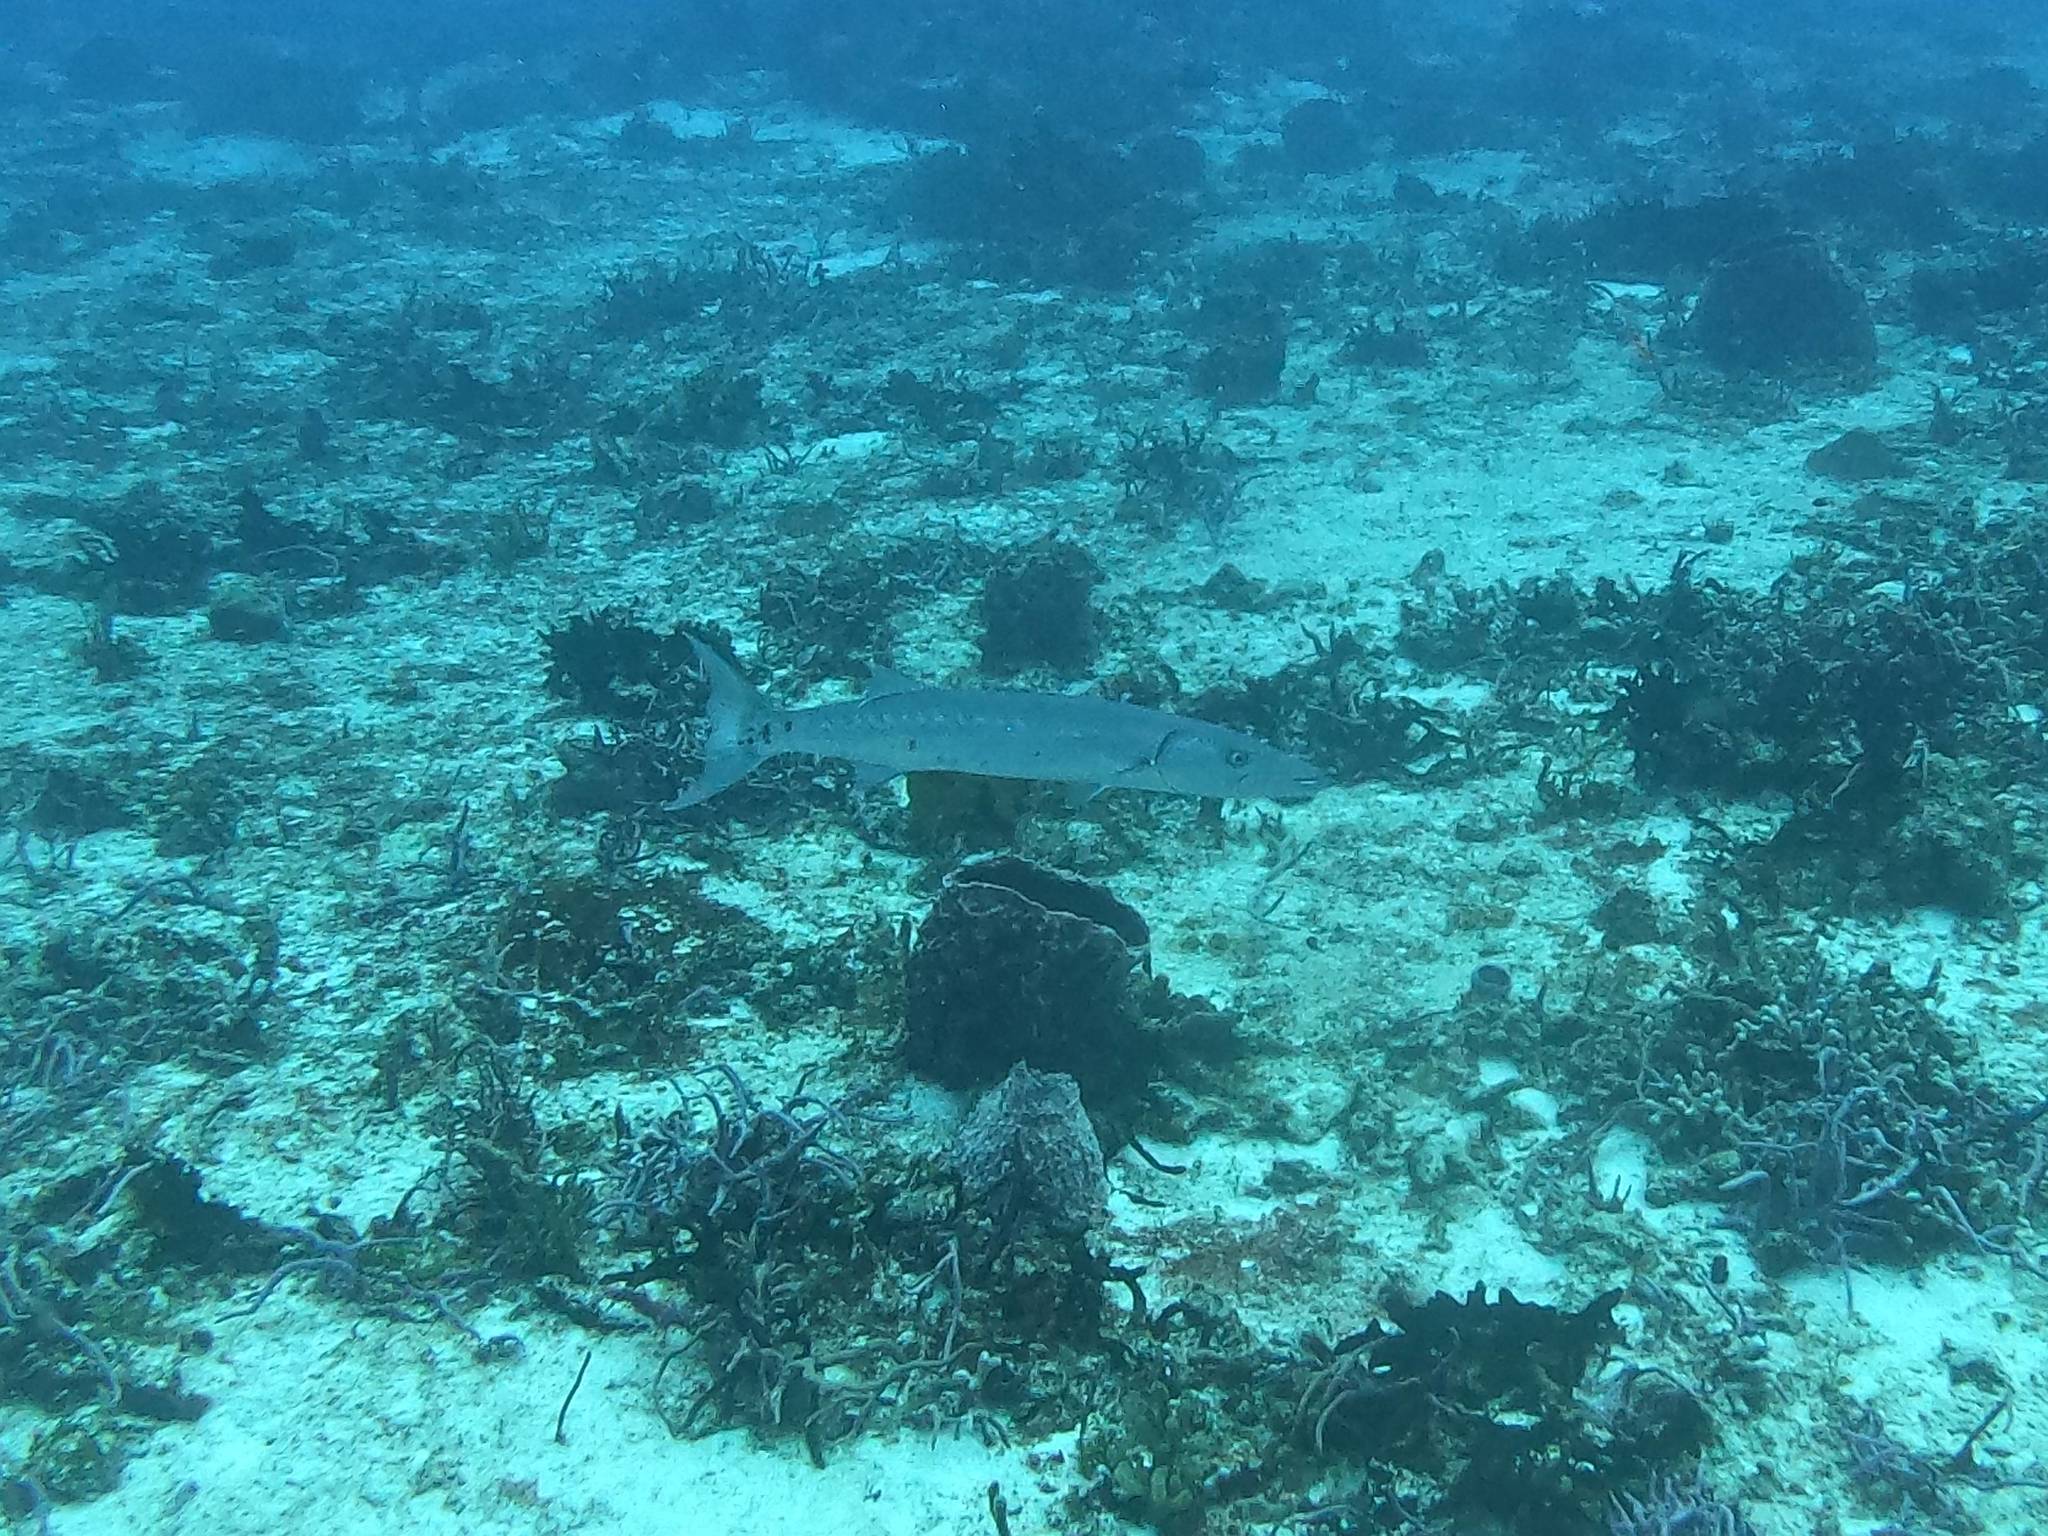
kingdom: Animalia
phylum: Chordata
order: Perciformes
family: Sphyraenidae
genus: Sphyraena
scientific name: Sphyraena barracuda
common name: Great barracuda
